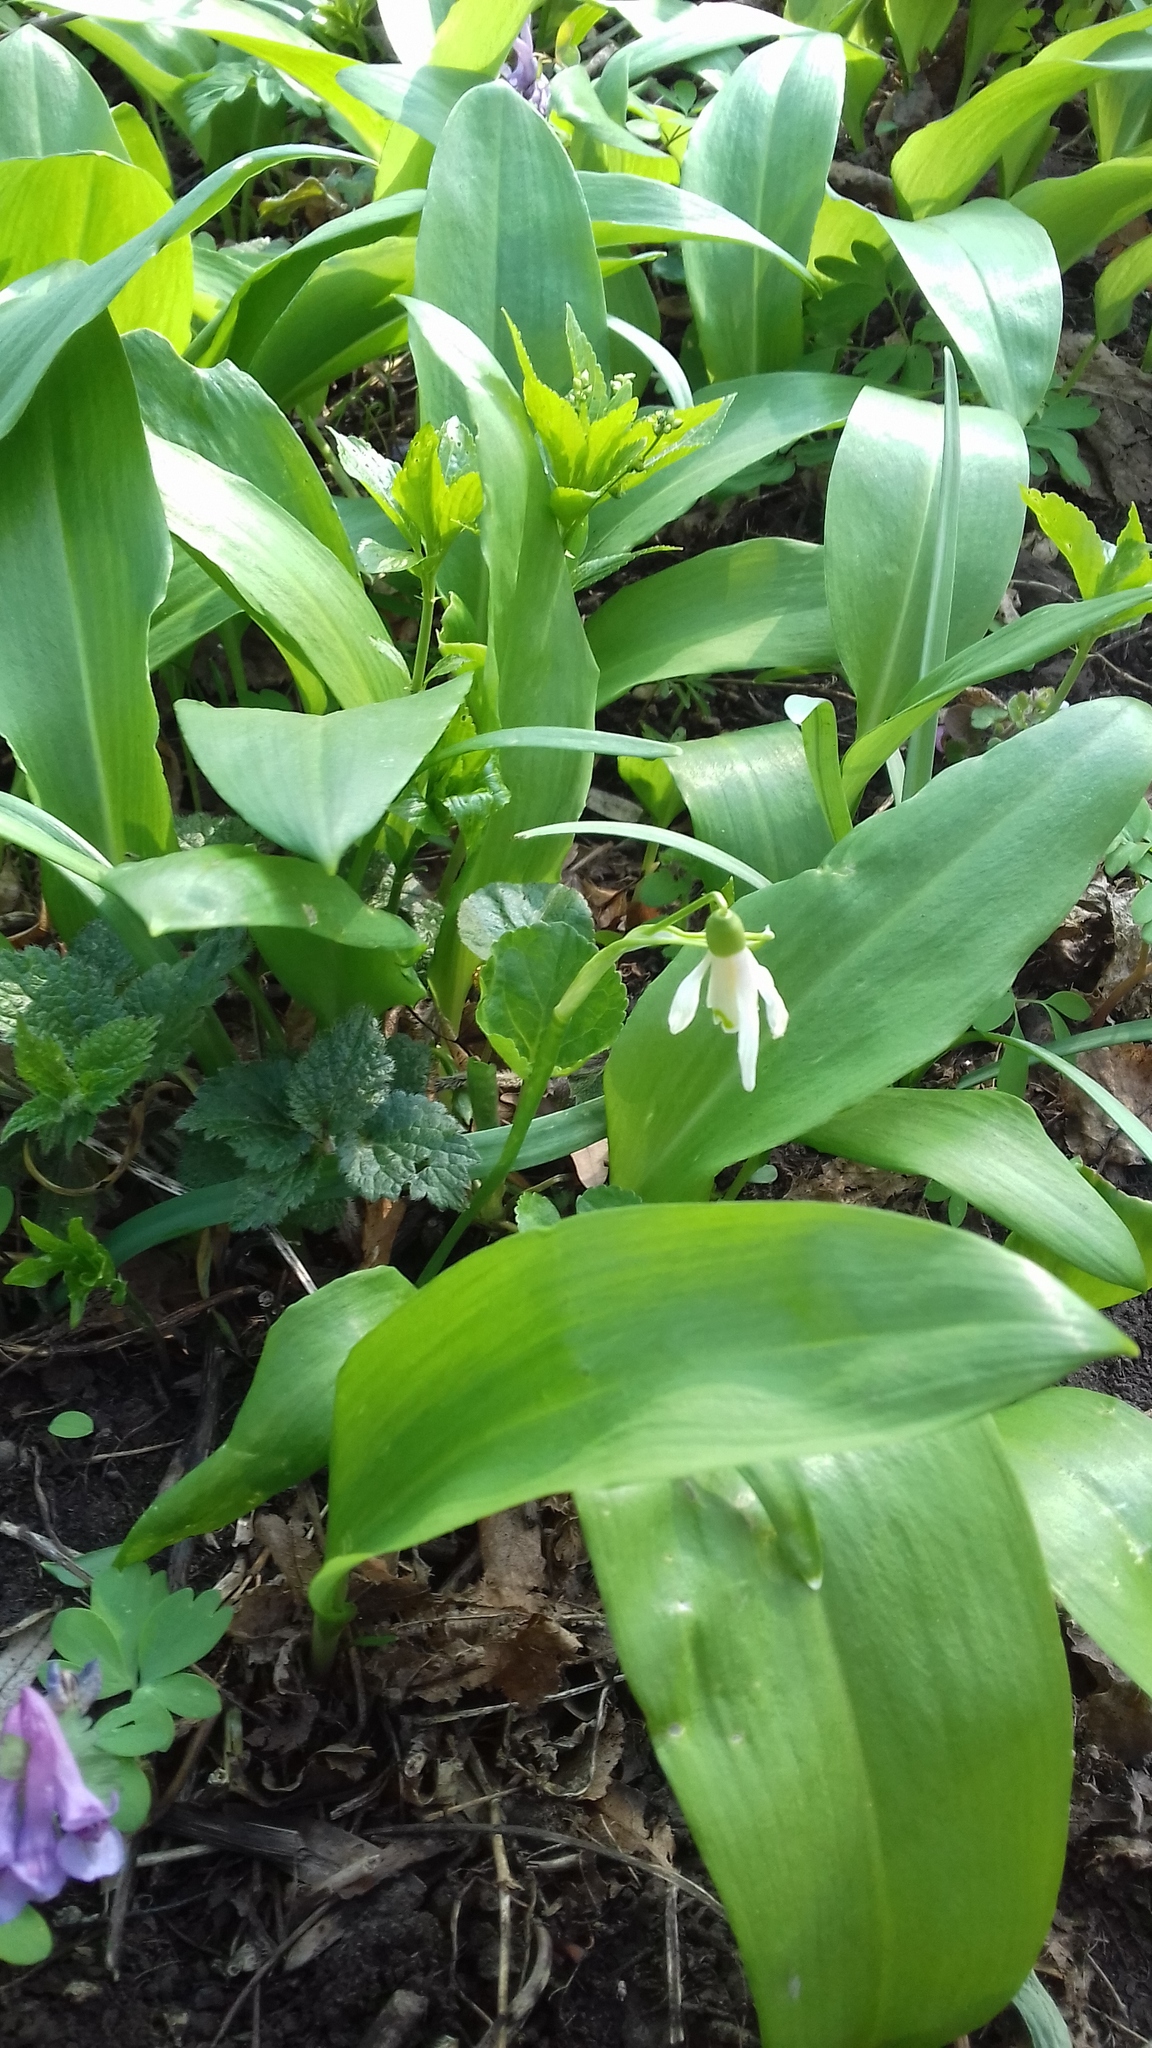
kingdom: Plantae
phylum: Tracheophyta
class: Liliopsida
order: Asparagales
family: Amaryllidaceae
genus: Galanthus
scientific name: Galanthus nivalis
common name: Snowdrop
